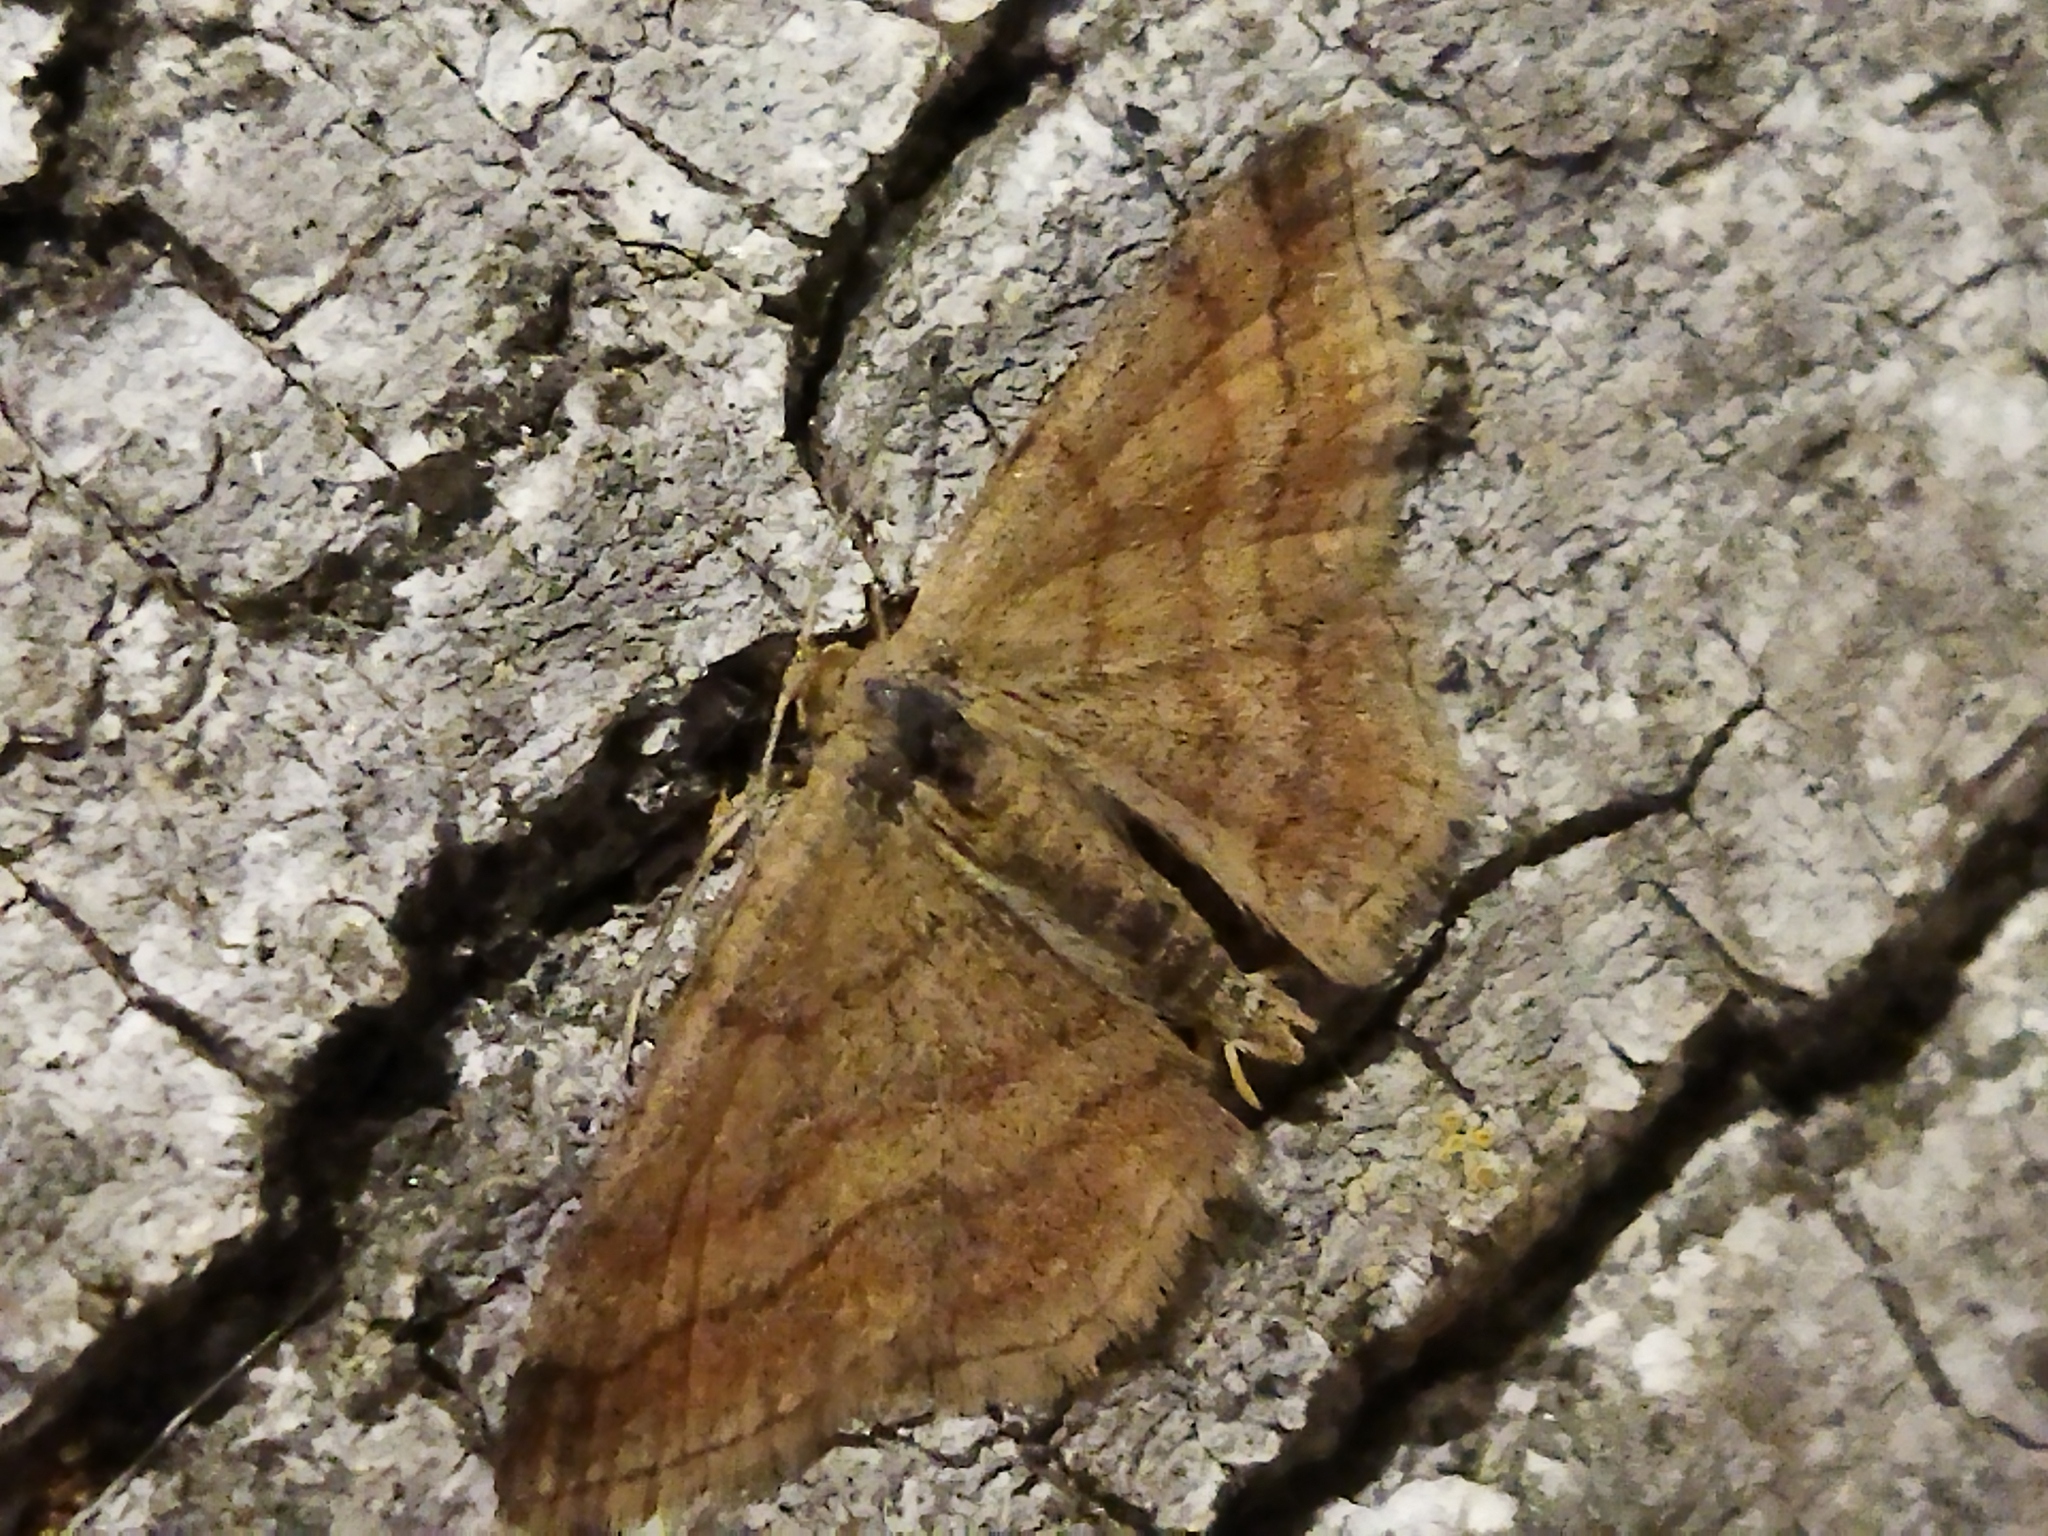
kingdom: Animalia
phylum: Arthropoda
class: Insecta
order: Lepidoptera
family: Geometridae
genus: Scopula
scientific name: Scopula rubiginata
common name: Tawny wave
